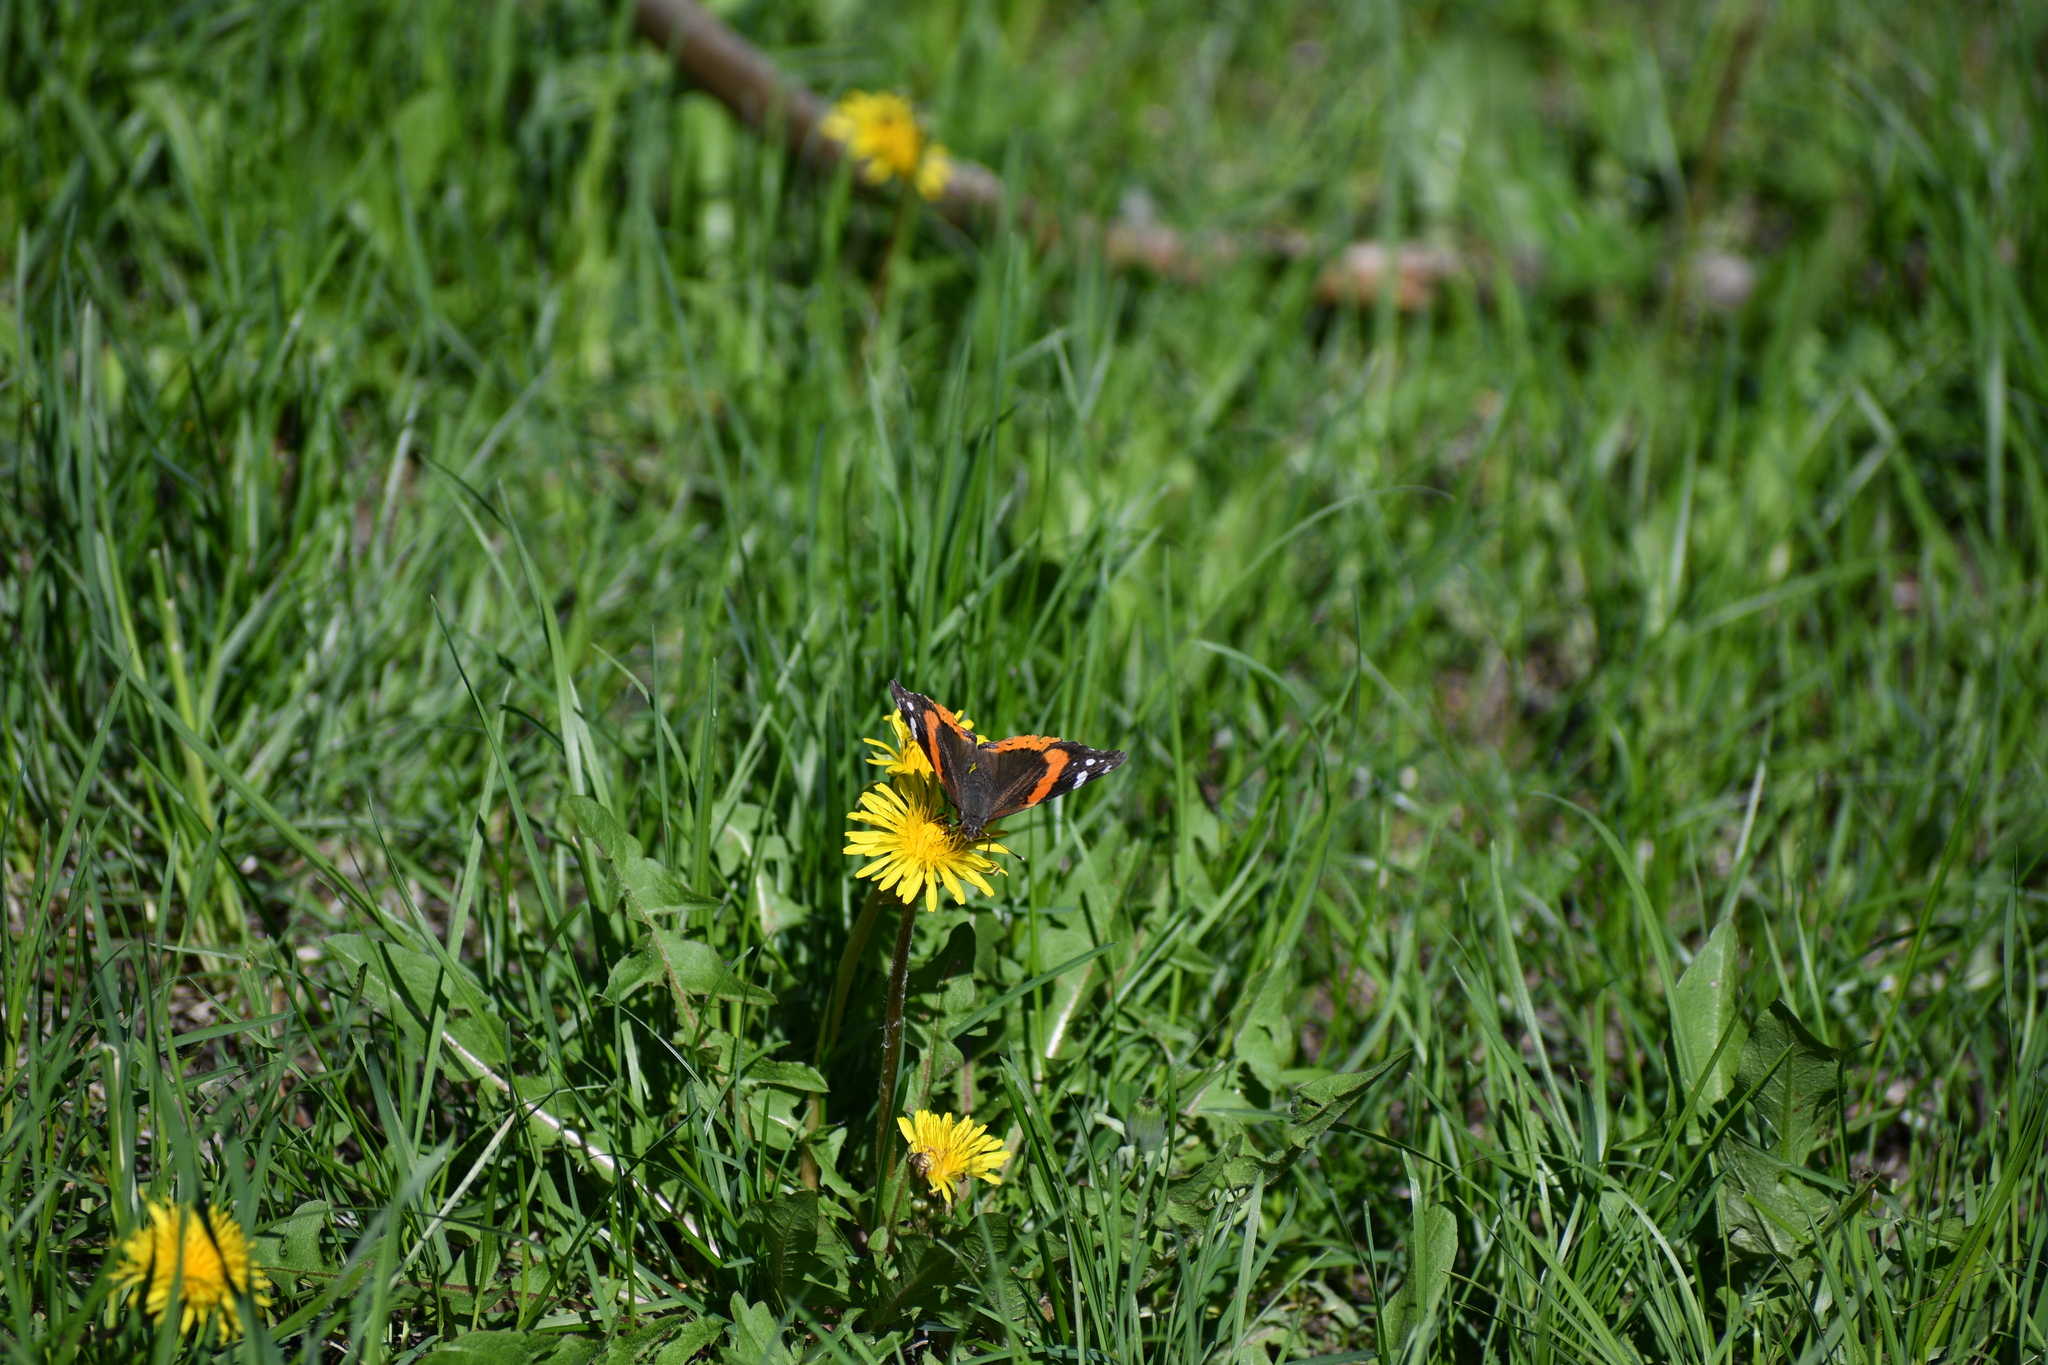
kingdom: Animalia
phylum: Arthropoda
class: Insecta
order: Lepidoptera
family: Nymphalidae
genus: Vanessa
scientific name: Vanessa atalanta
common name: Red admiral
